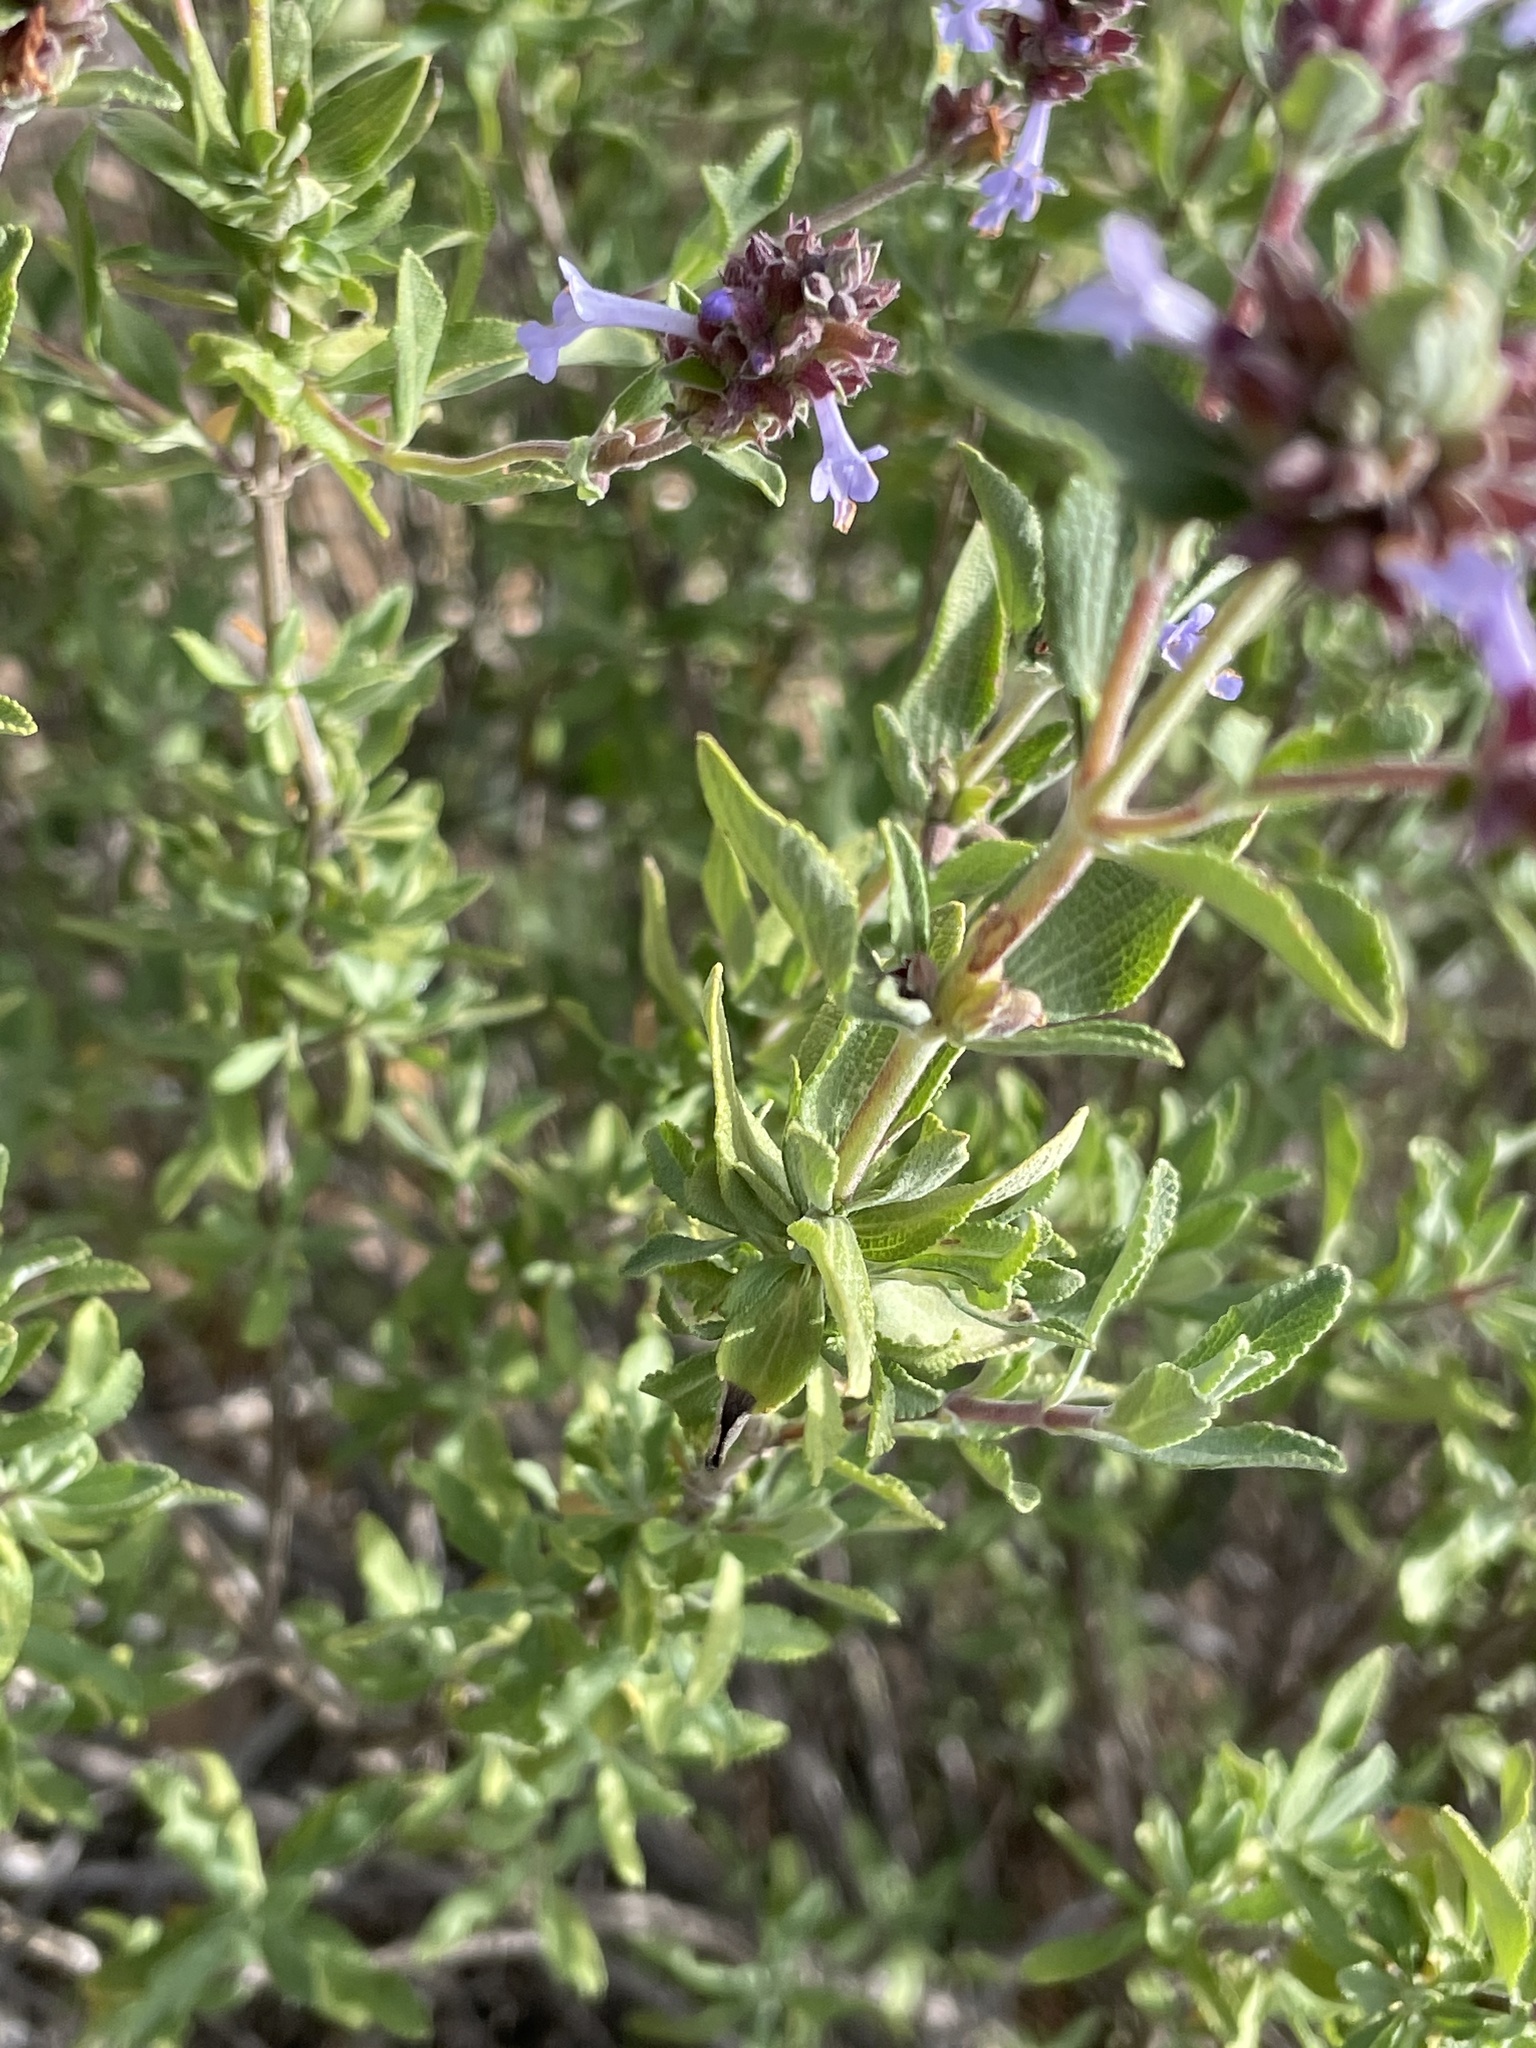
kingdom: Plantae
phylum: Tracheophyta
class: Magnoliopsida
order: Lamiales
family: Lamiaceae
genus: Salvia
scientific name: Salvia munzii
